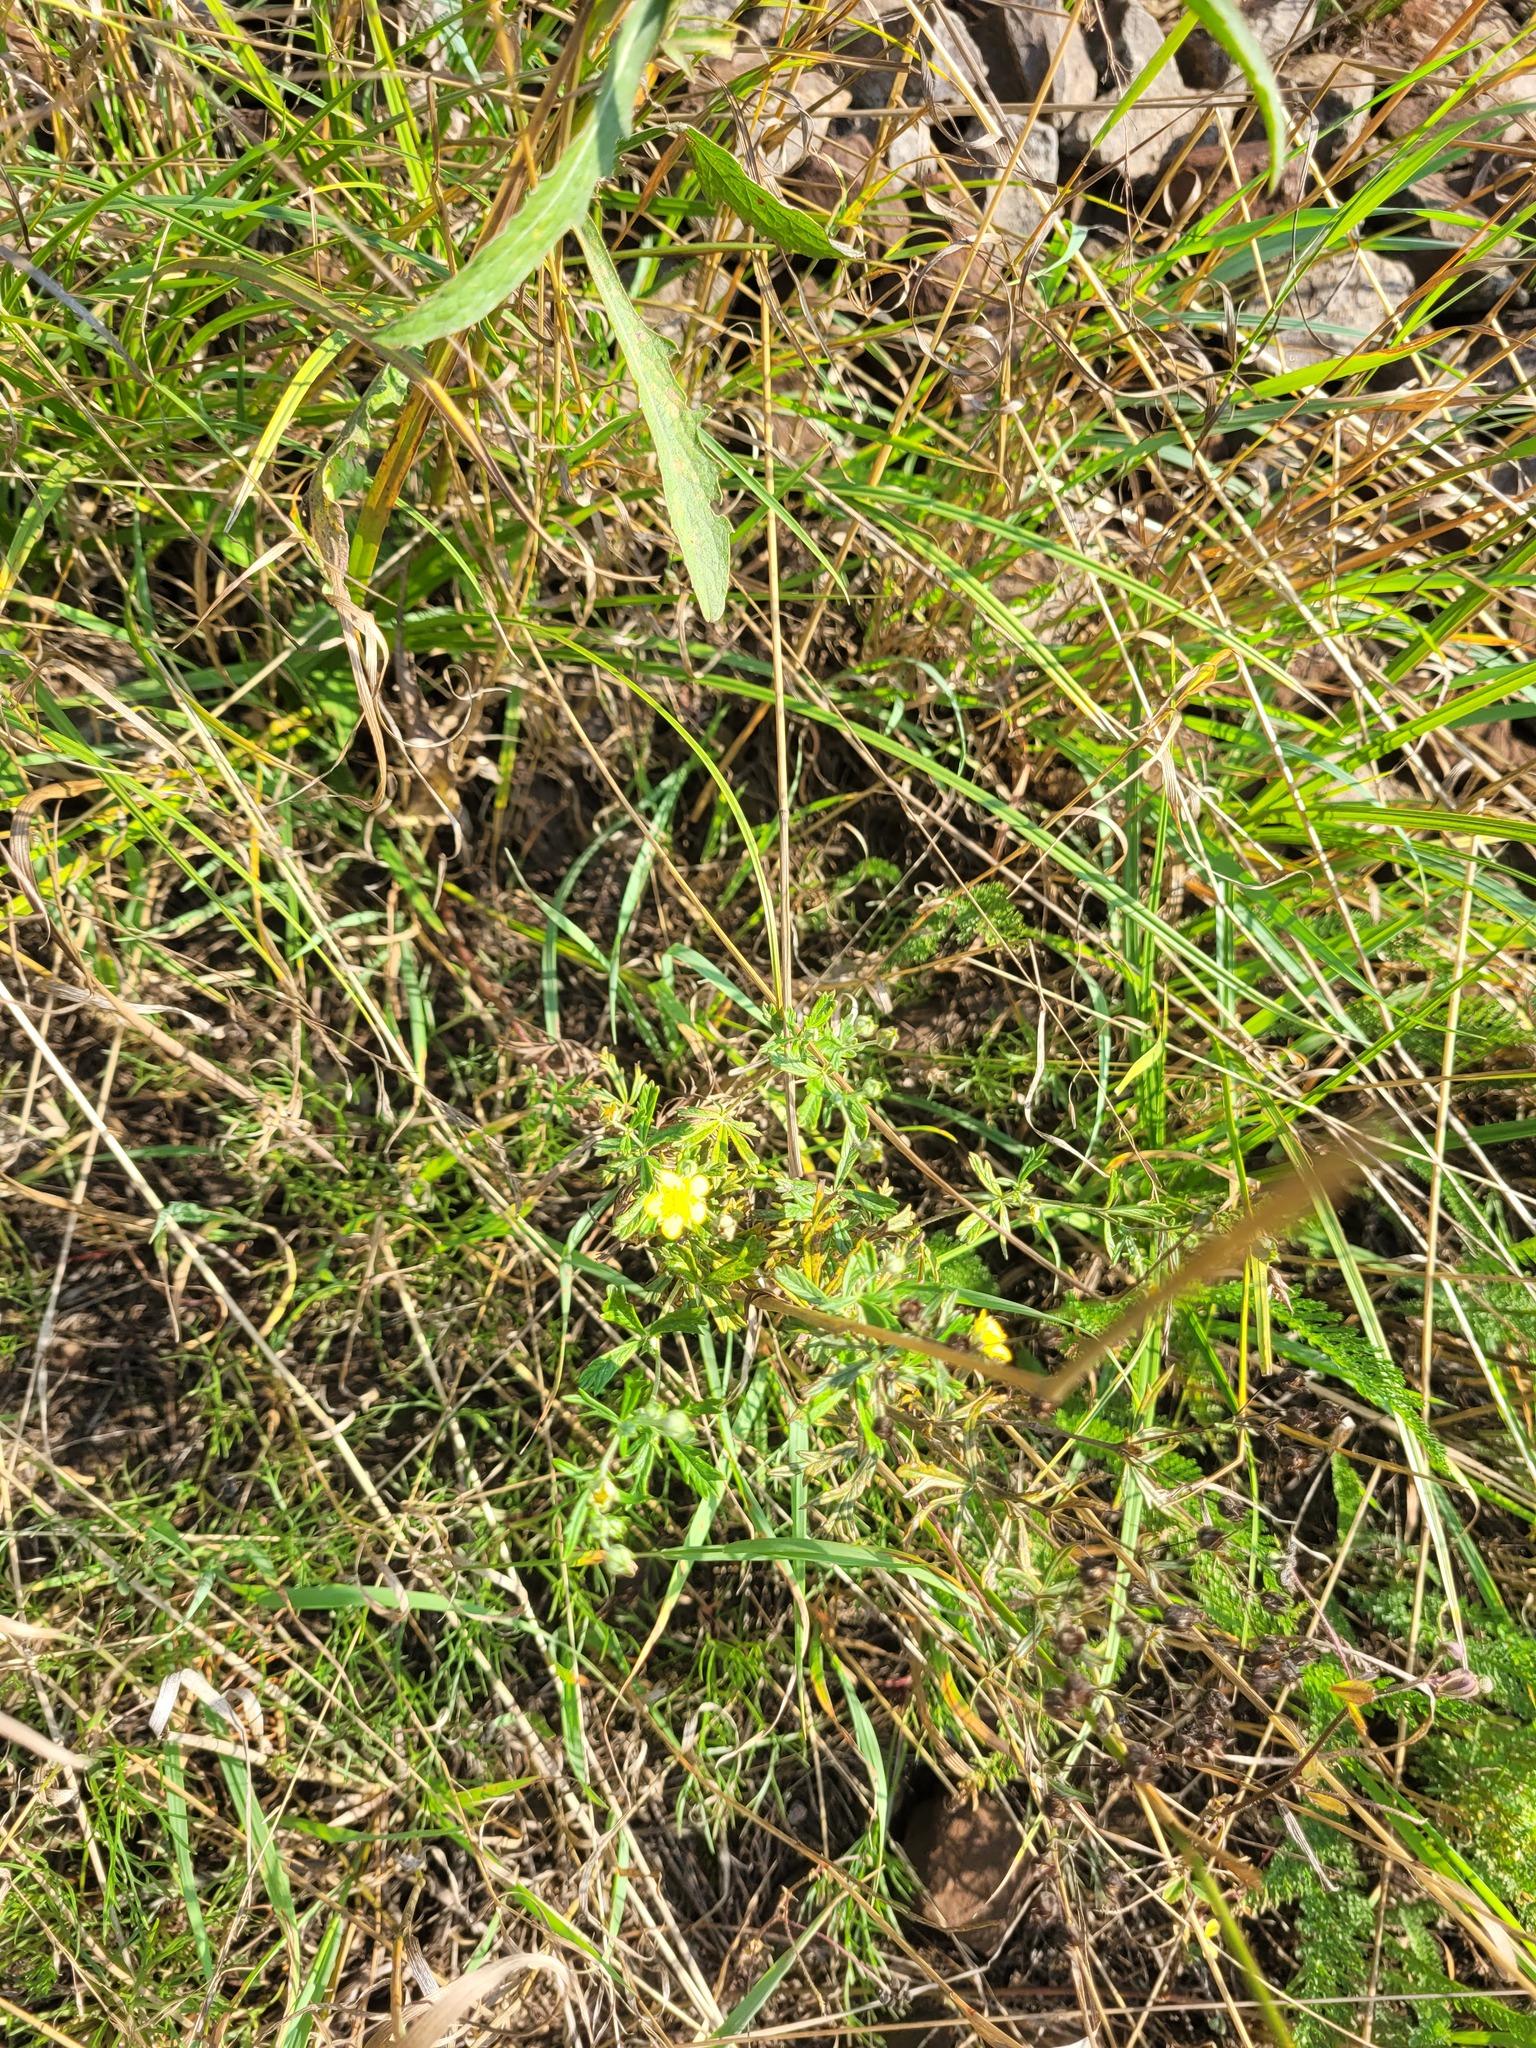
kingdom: Plantae
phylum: Tracheophyta
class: Magnoliopsida
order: Rosales
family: Rosaceae
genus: Potentilla
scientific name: Potentilla argentea
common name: Hoary cinquefoil
